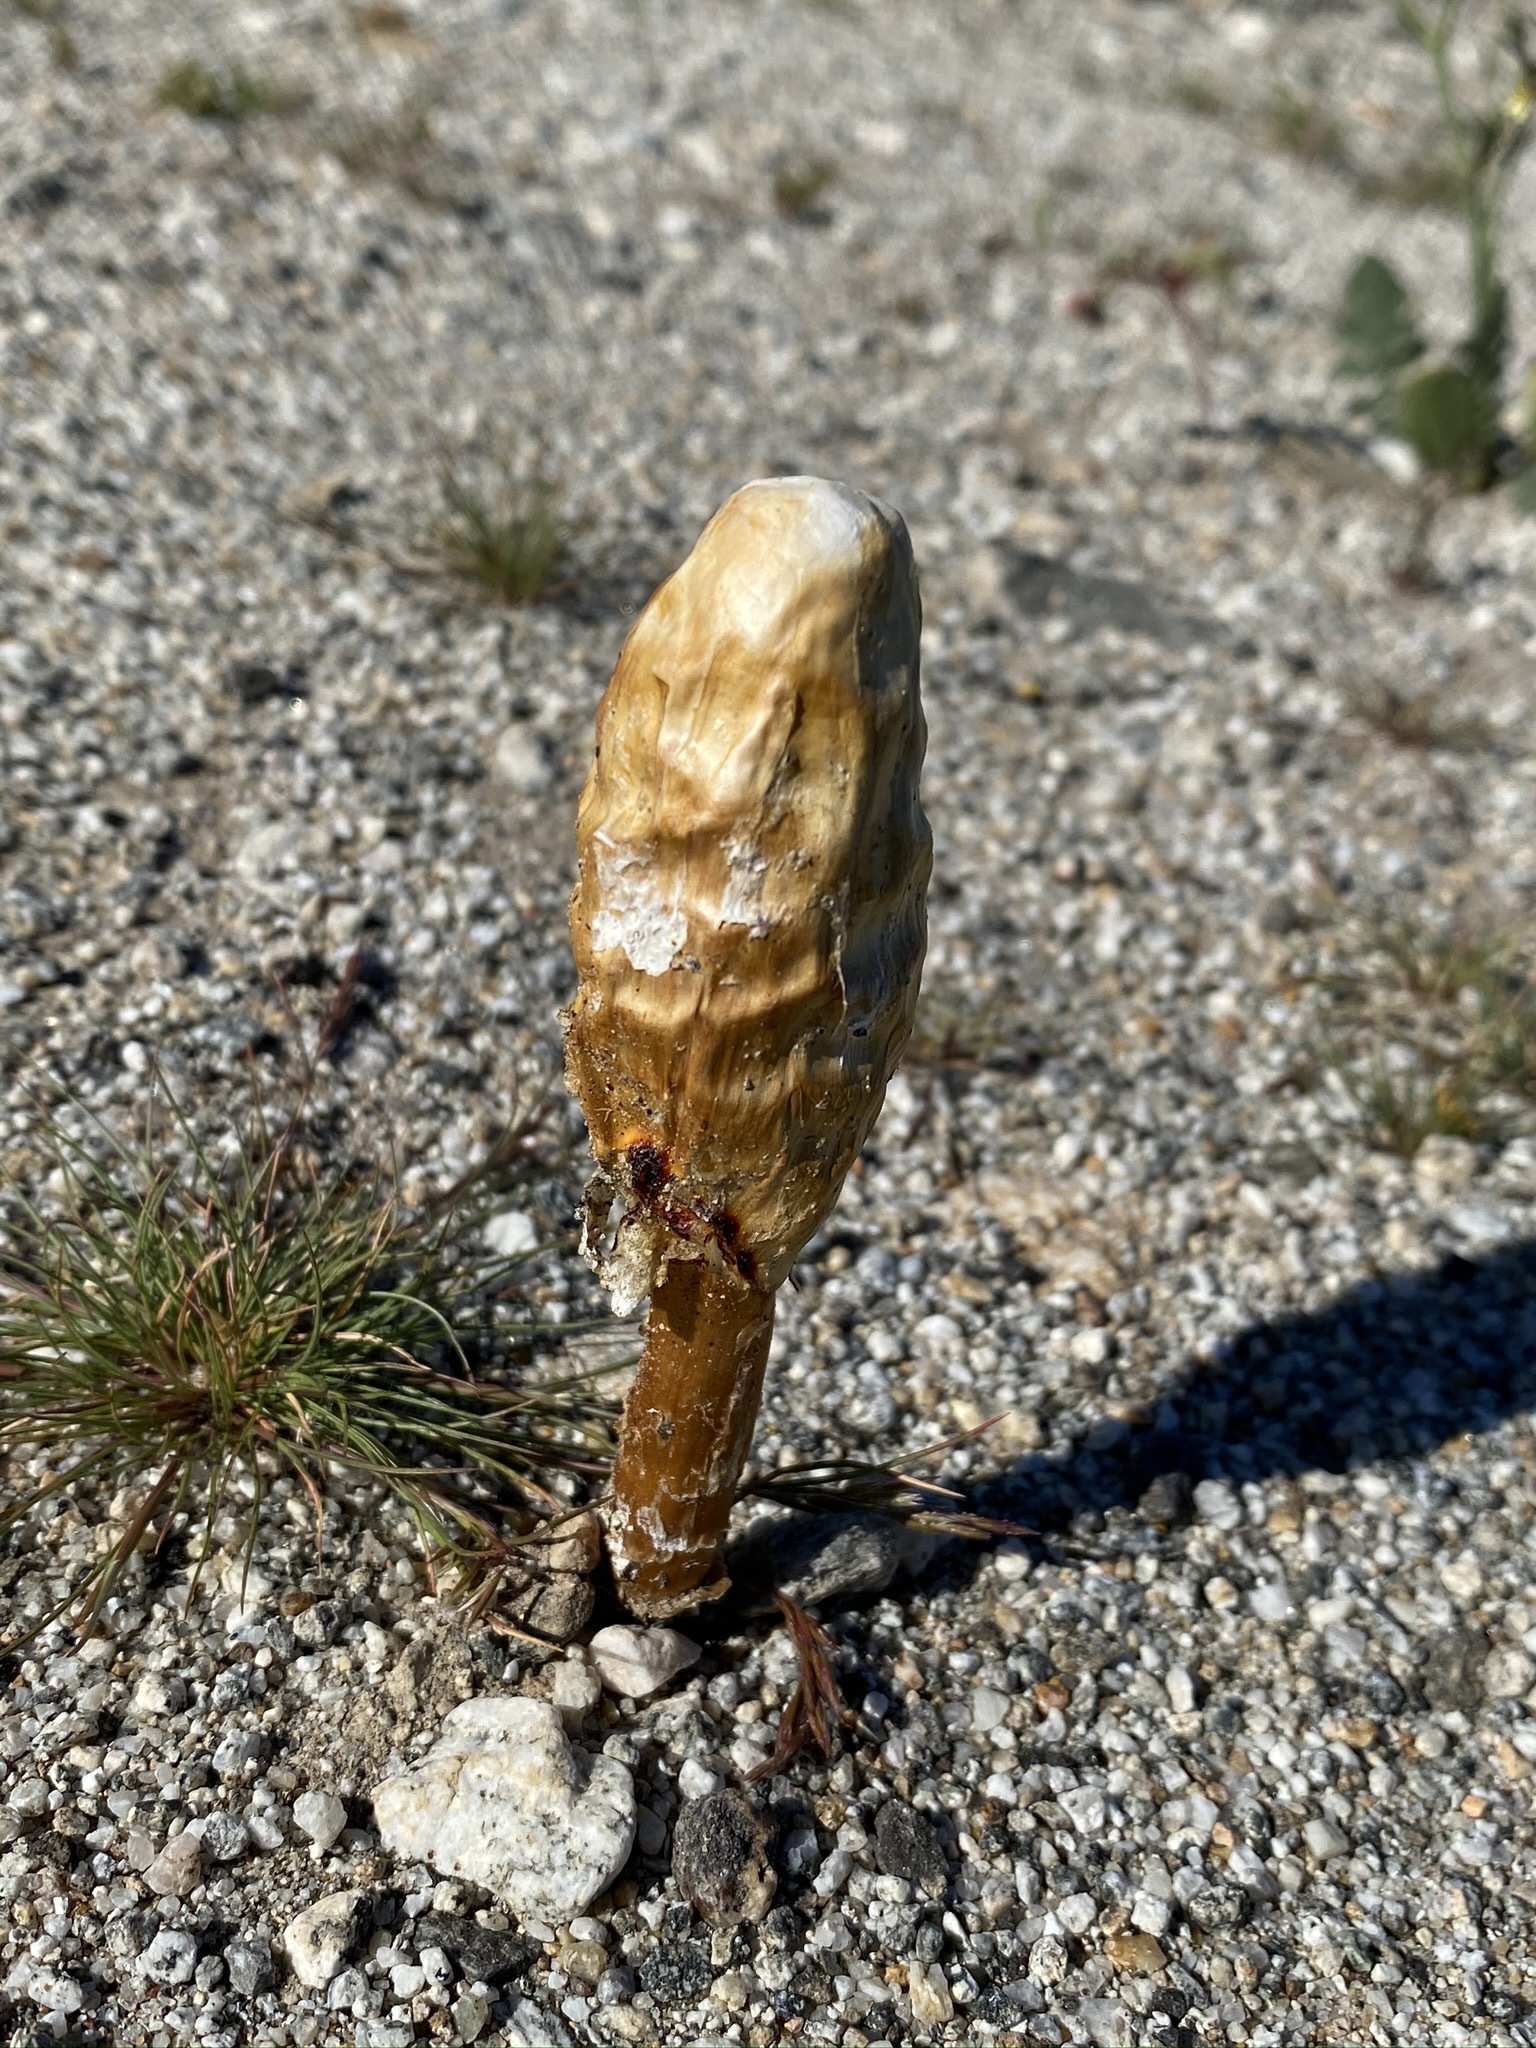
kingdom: Fungi
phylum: Basidiomycota
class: Agaricomycetes
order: Agaricales
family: Agaricaceae
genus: Podaxis
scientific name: Podaxis pistillaris
